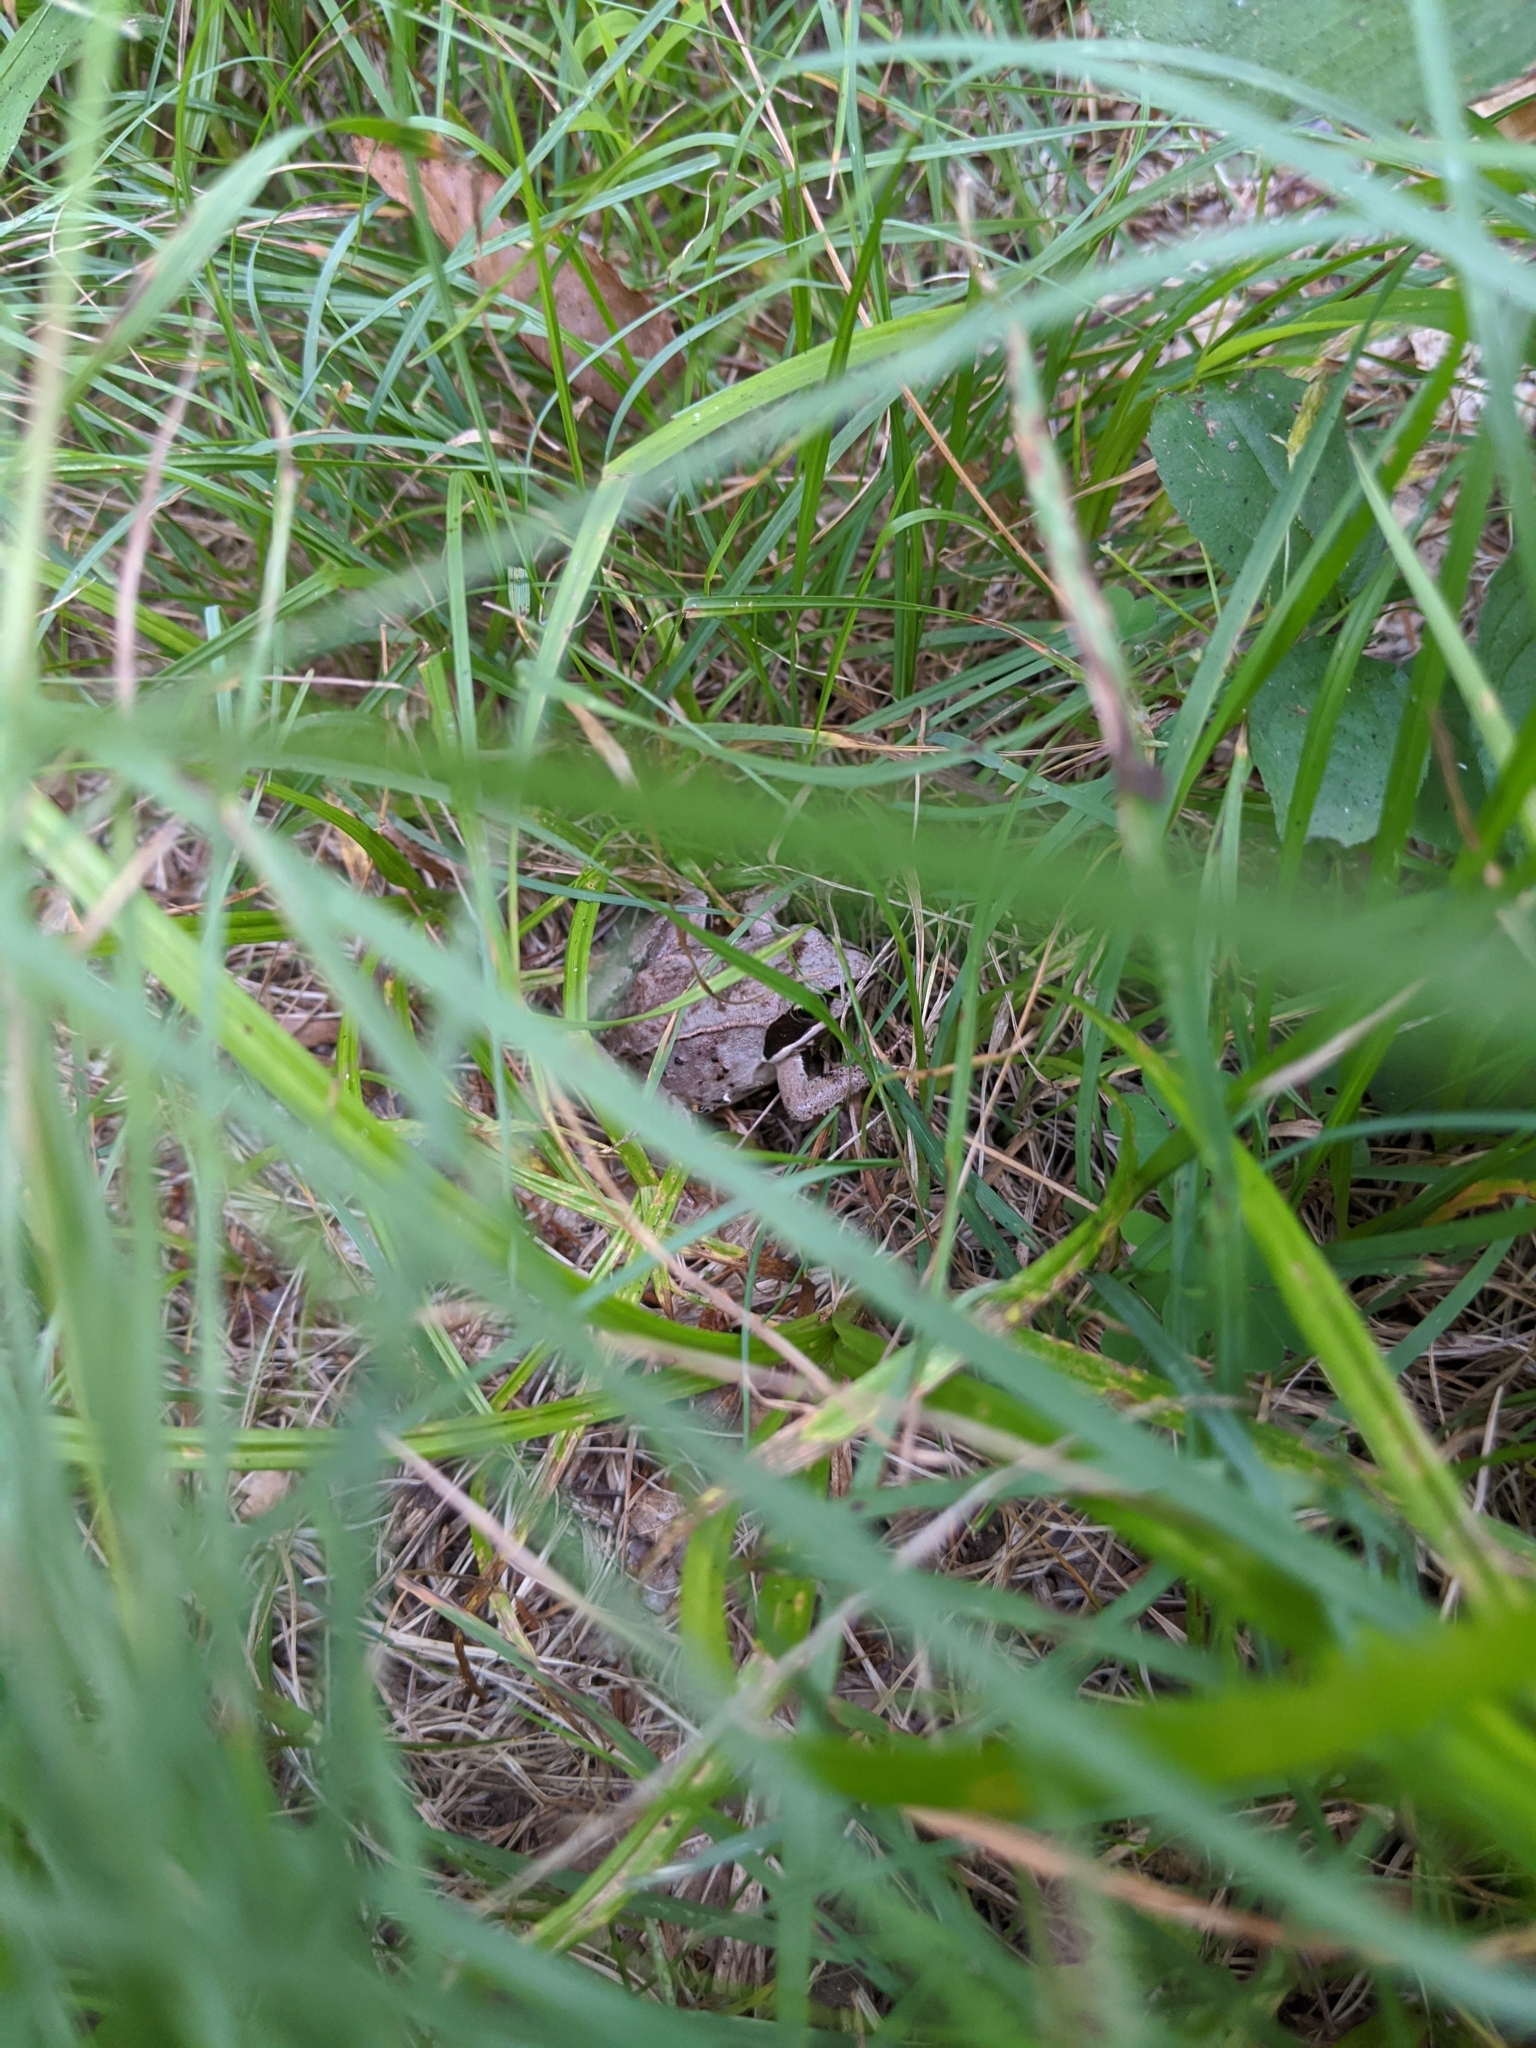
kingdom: Animalia
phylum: Chordata
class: Amphibia
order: Anura
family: Ranidae
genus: Lithobates
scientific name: Lithobates sylvaticus
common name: Wood frog
